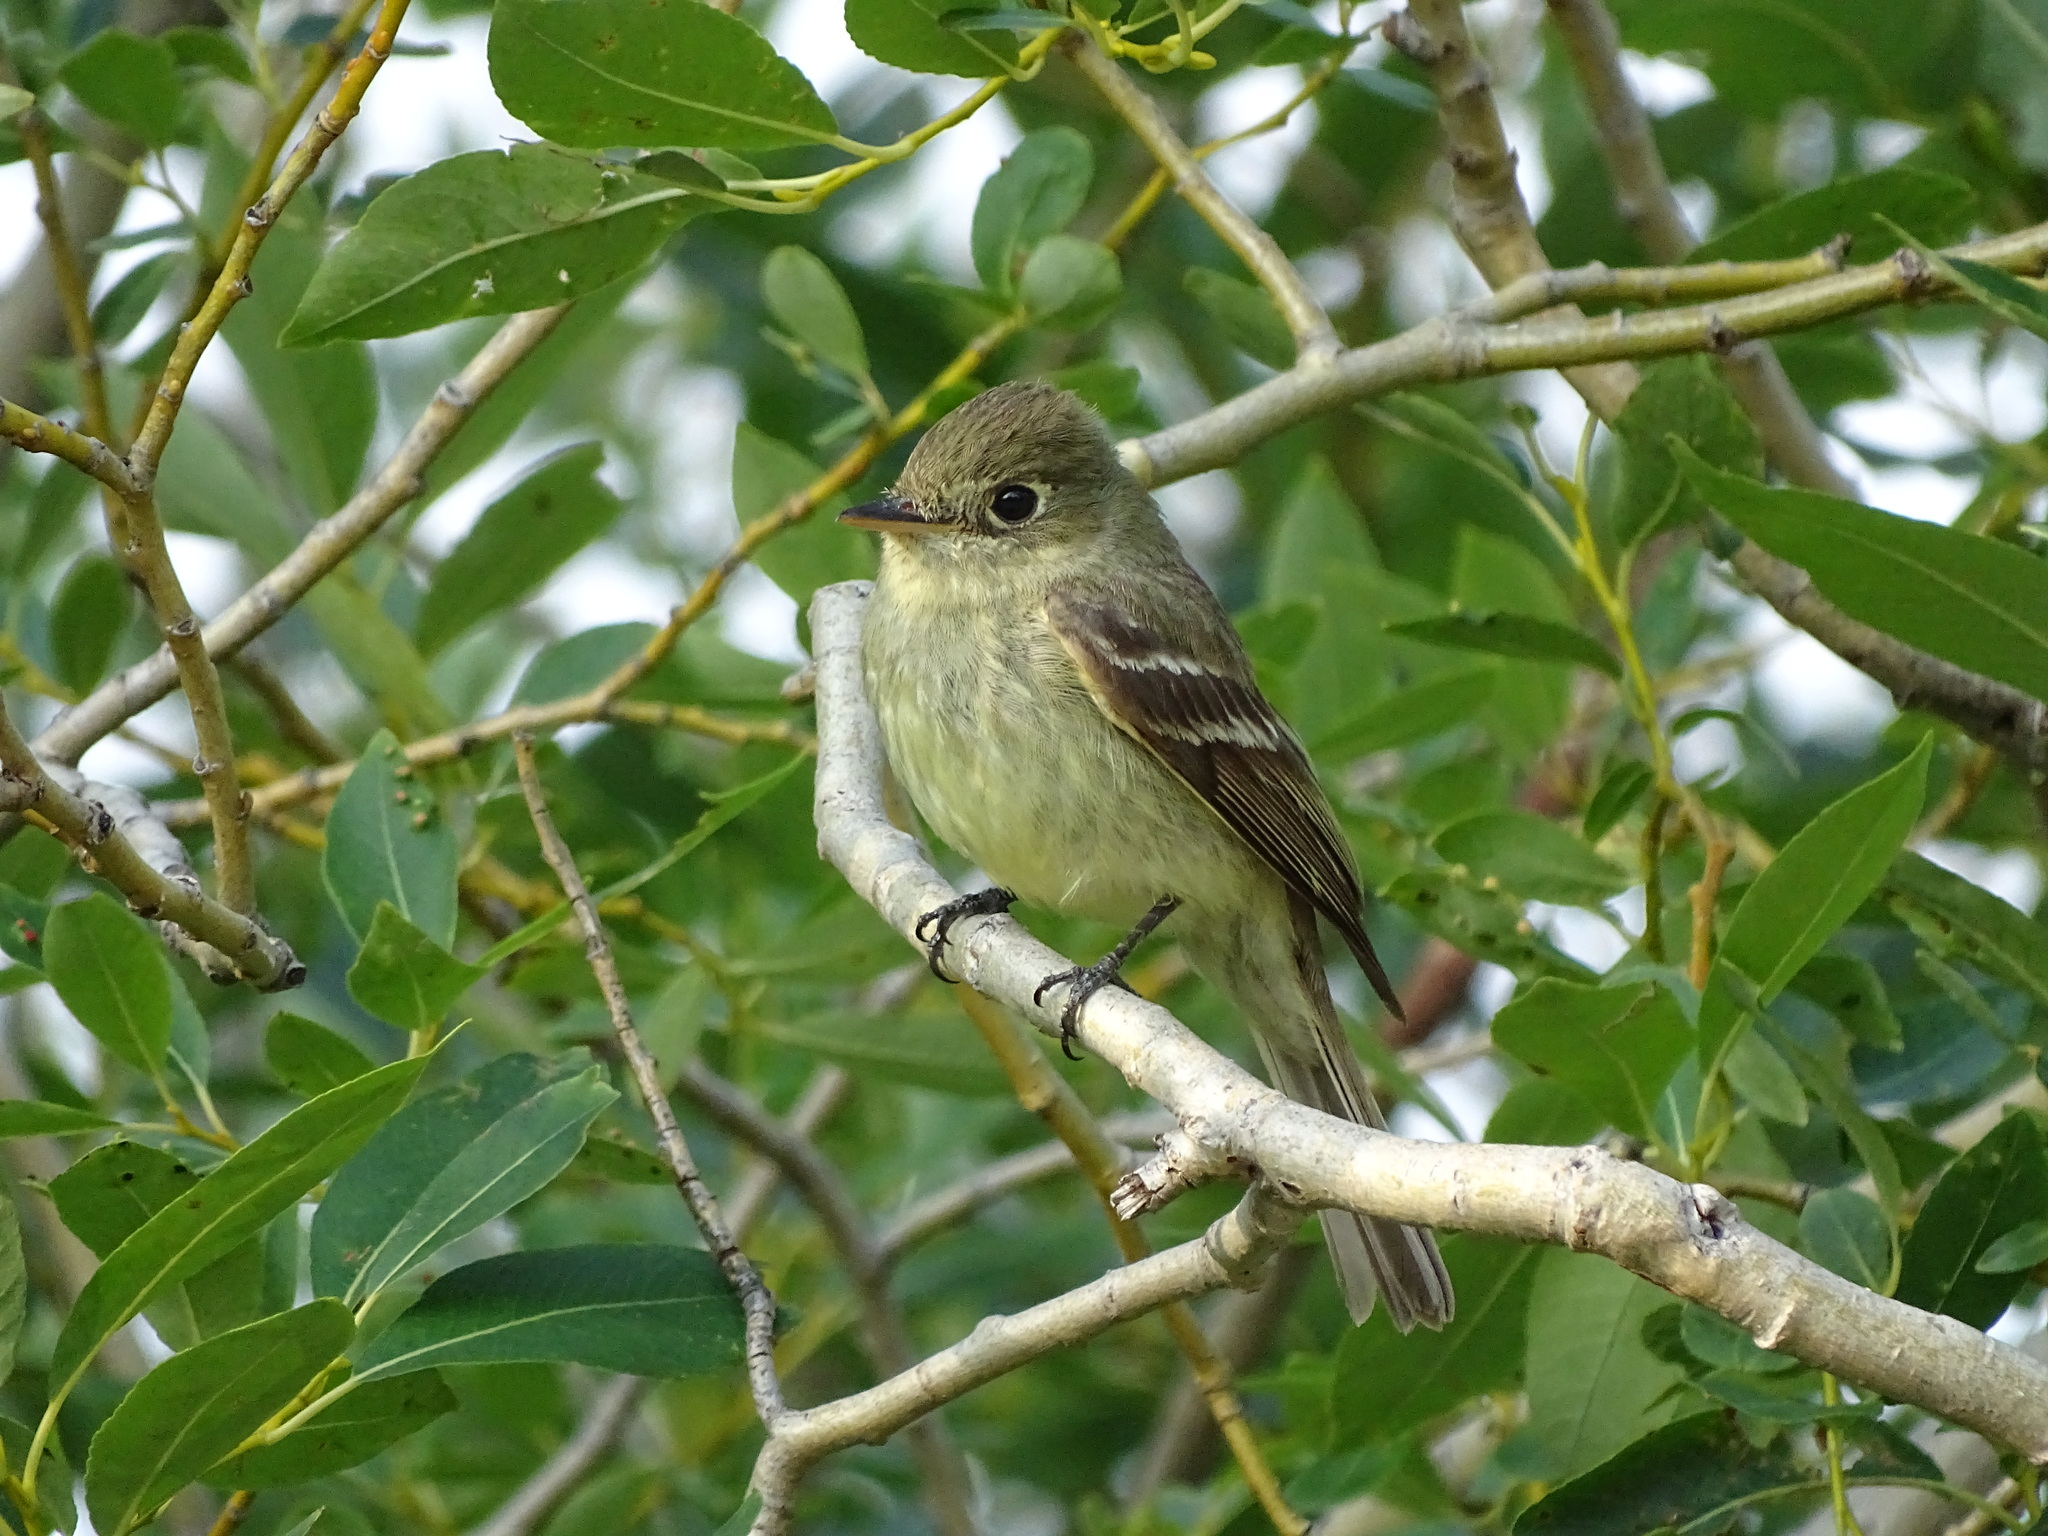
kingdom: Animalia
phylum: Chordata
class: Aves
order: Passeriformes
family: Tyrannidae
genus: Empidonax
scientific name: Empidonax difficilis
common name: Pacific-slope flycatcher
